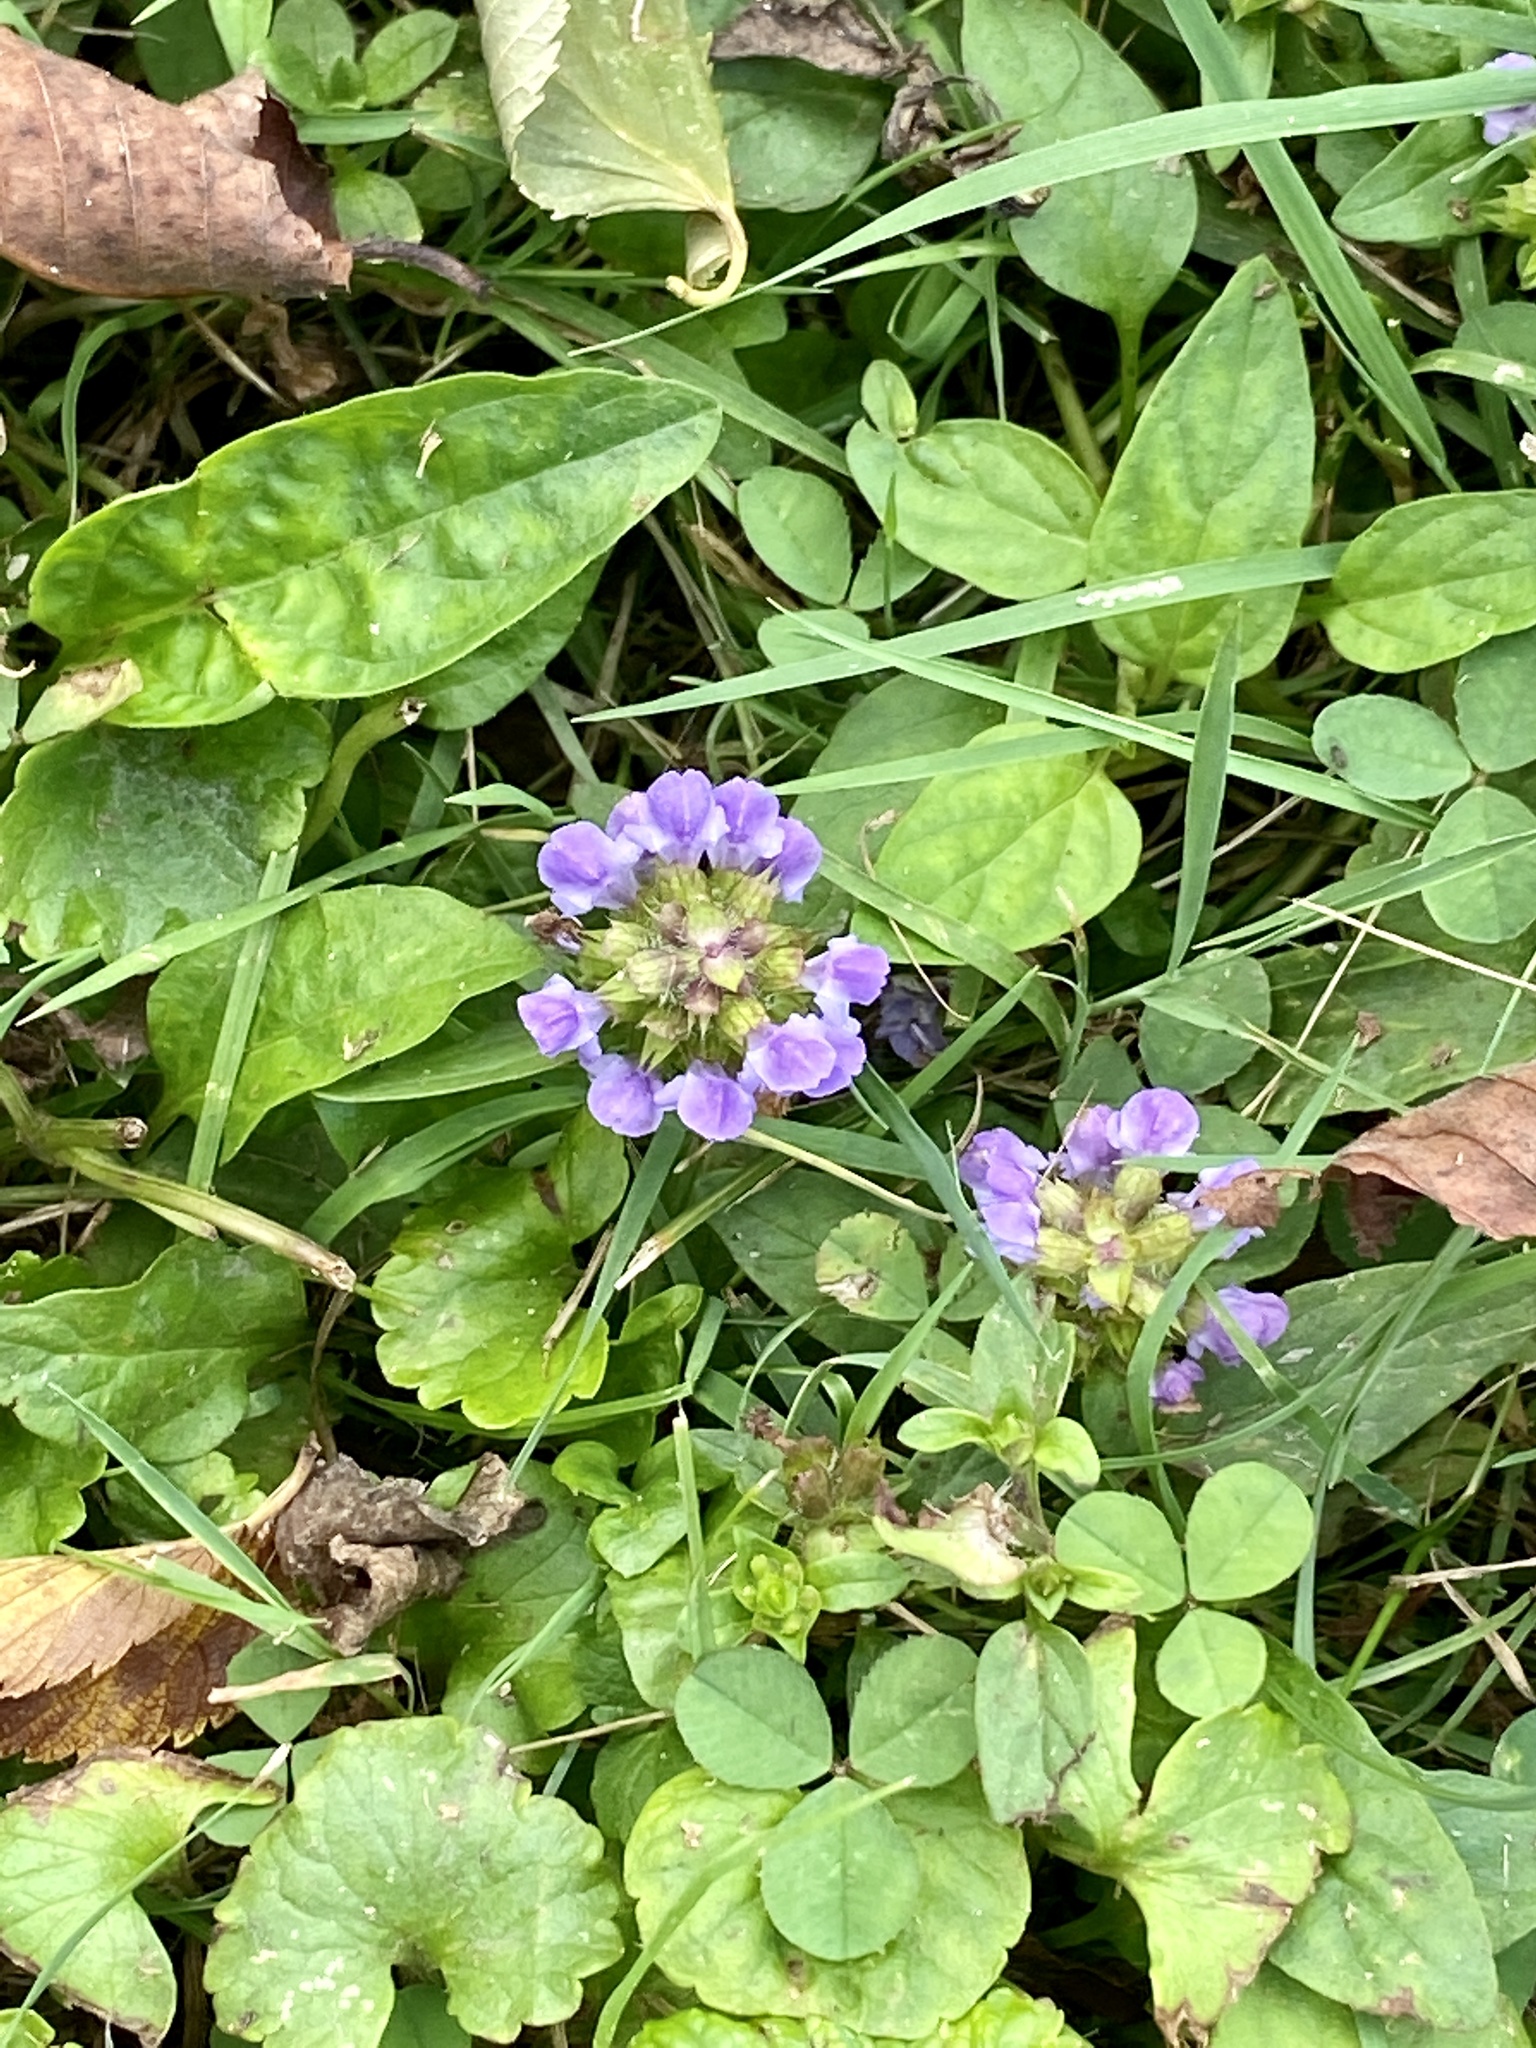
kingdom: Plantae
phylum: Tracheophyta
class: Magnoliopsida
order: Lamiales
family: Lamiaceae
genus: Prunella
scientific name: Prunella vulgaris
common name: Heal-all
